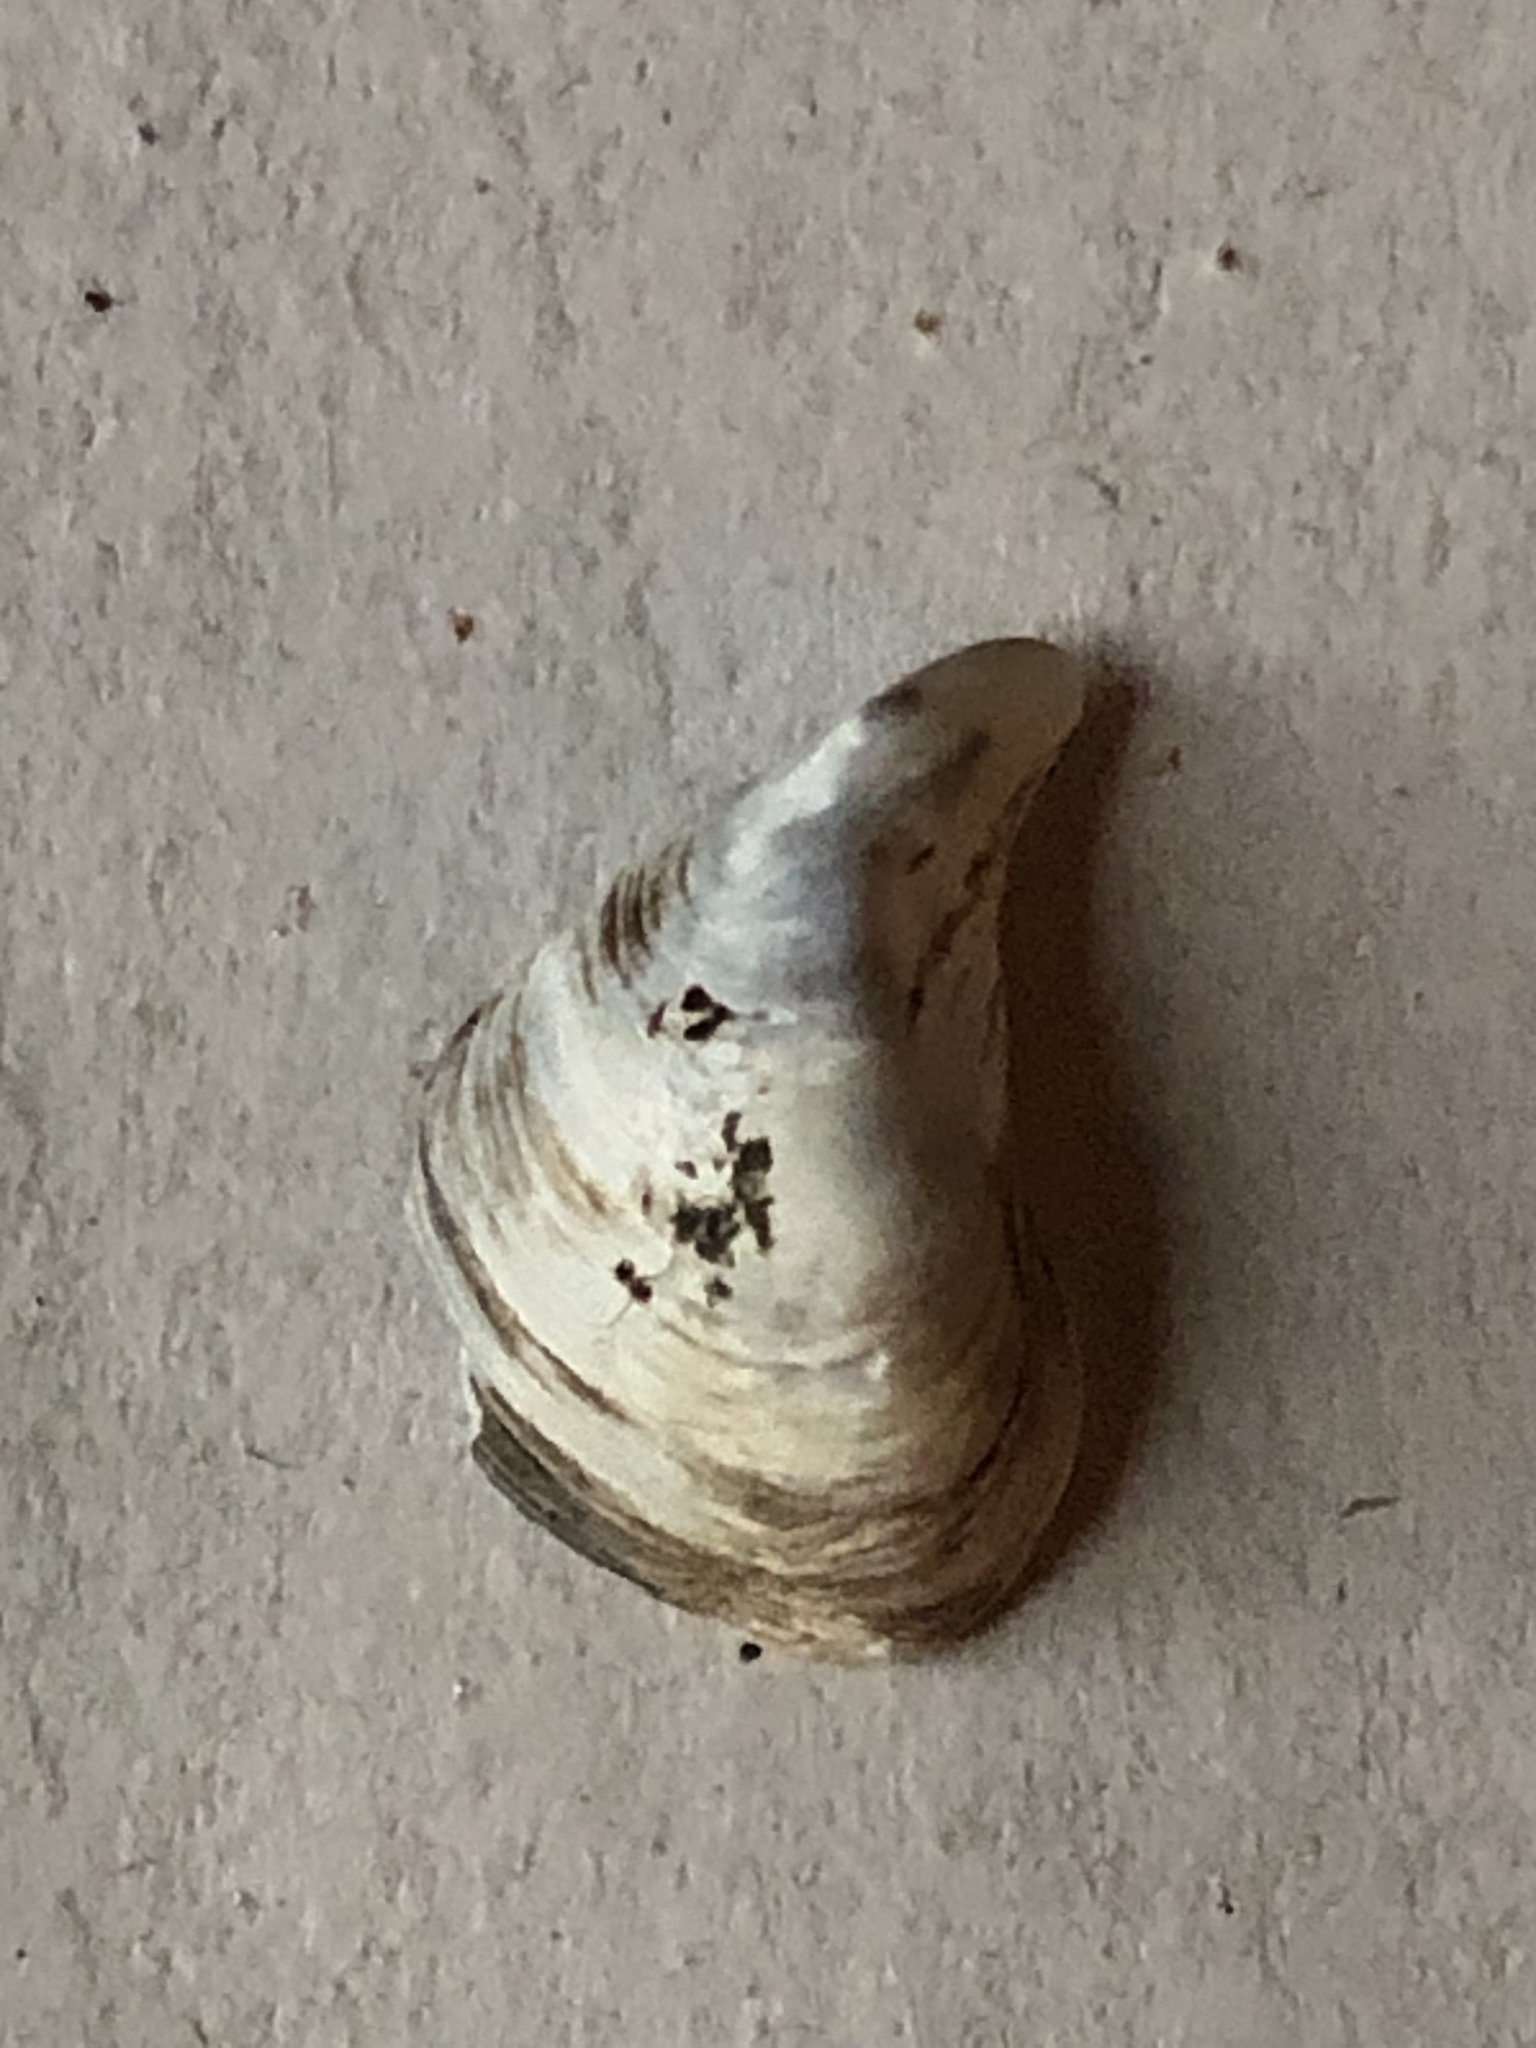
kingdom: Animalia
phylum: Mollusca
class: Bivalvia
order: Myida
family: Dreissenidae
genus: Dreissena
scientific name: Dreissena bugensis
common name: Quagga mussel
